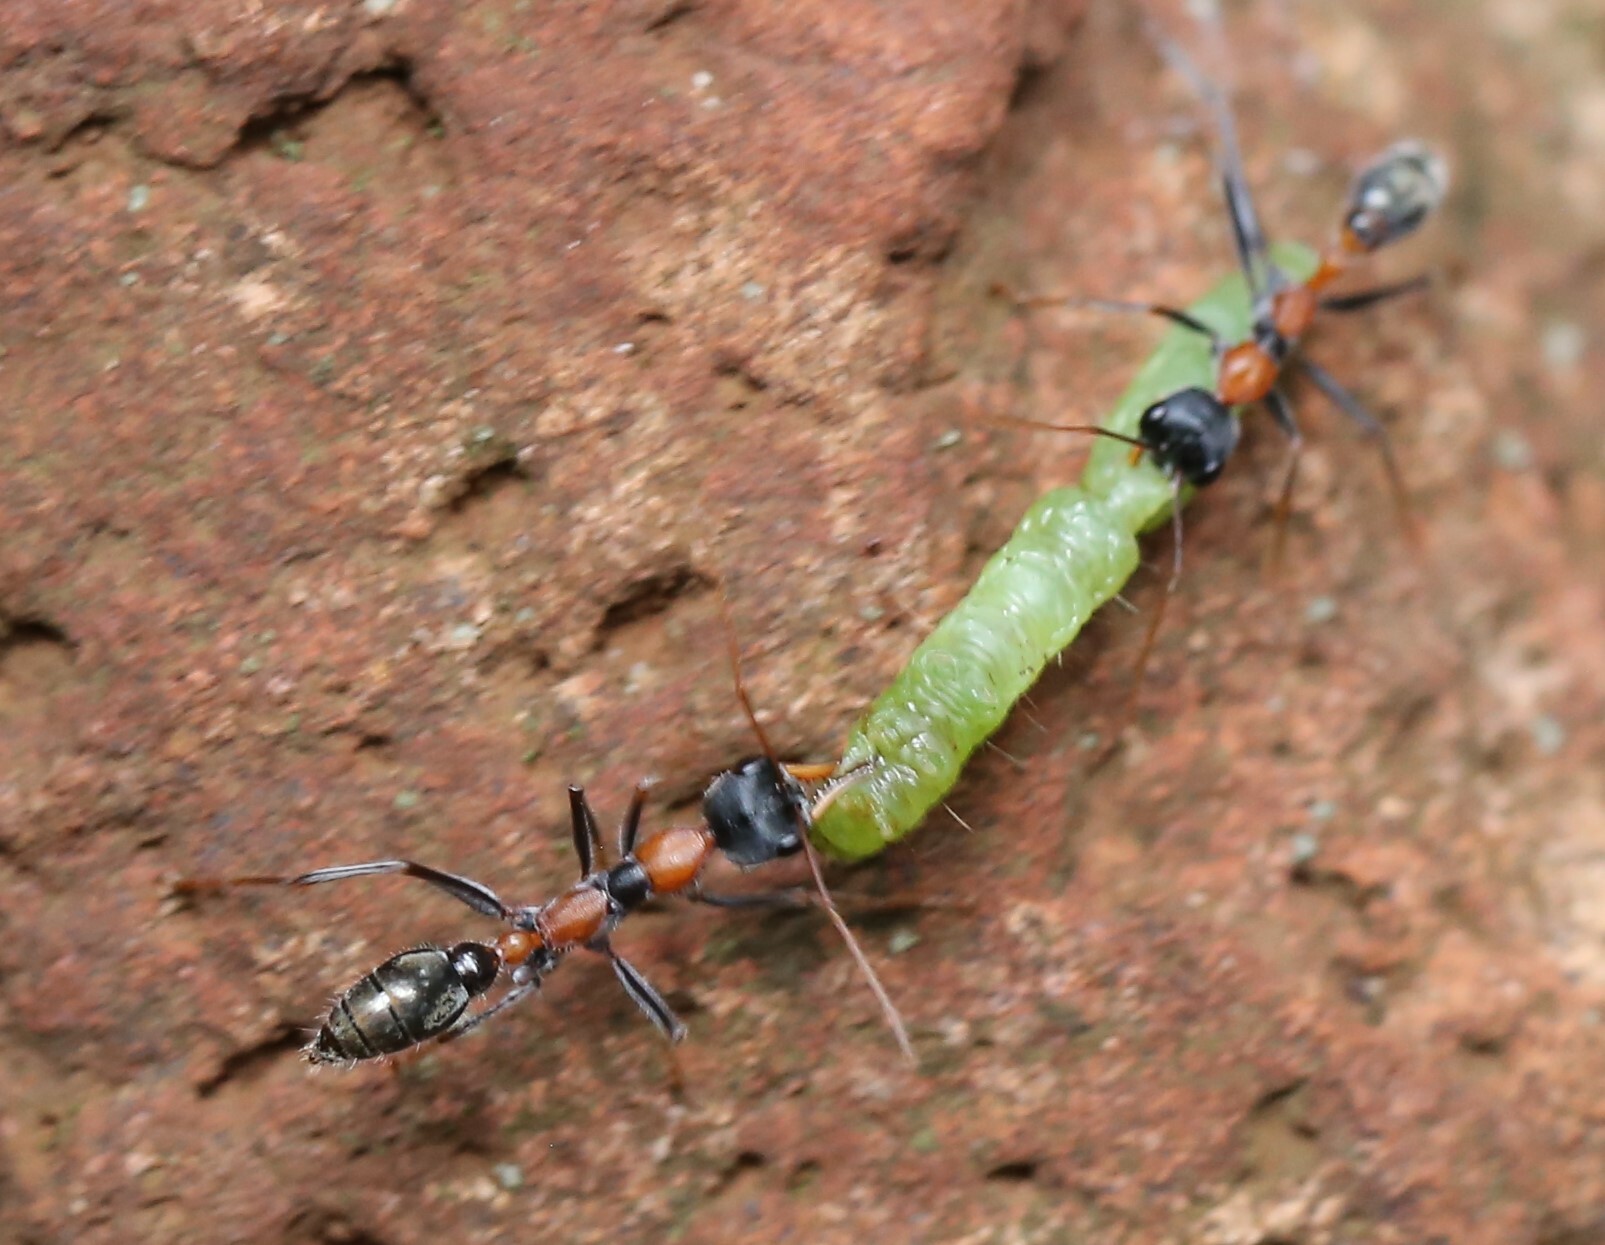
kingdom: Animalia
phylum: Arthropoda
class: Insecta
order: Hymenoptera
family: Formicidae
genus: Myrmecia
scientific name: Myrmecia nigrocincta
